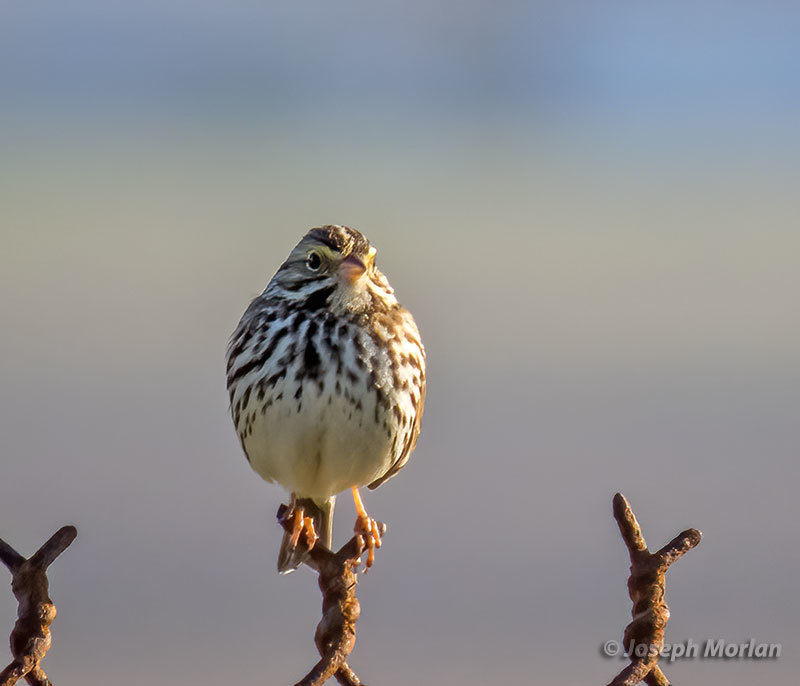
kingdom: Animalia
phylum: Chordata
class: Aves
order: Passeriformes
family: Passerellidae
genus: Passerculus
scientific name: Passerculus sandwichensis
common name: Savannah sparrow
